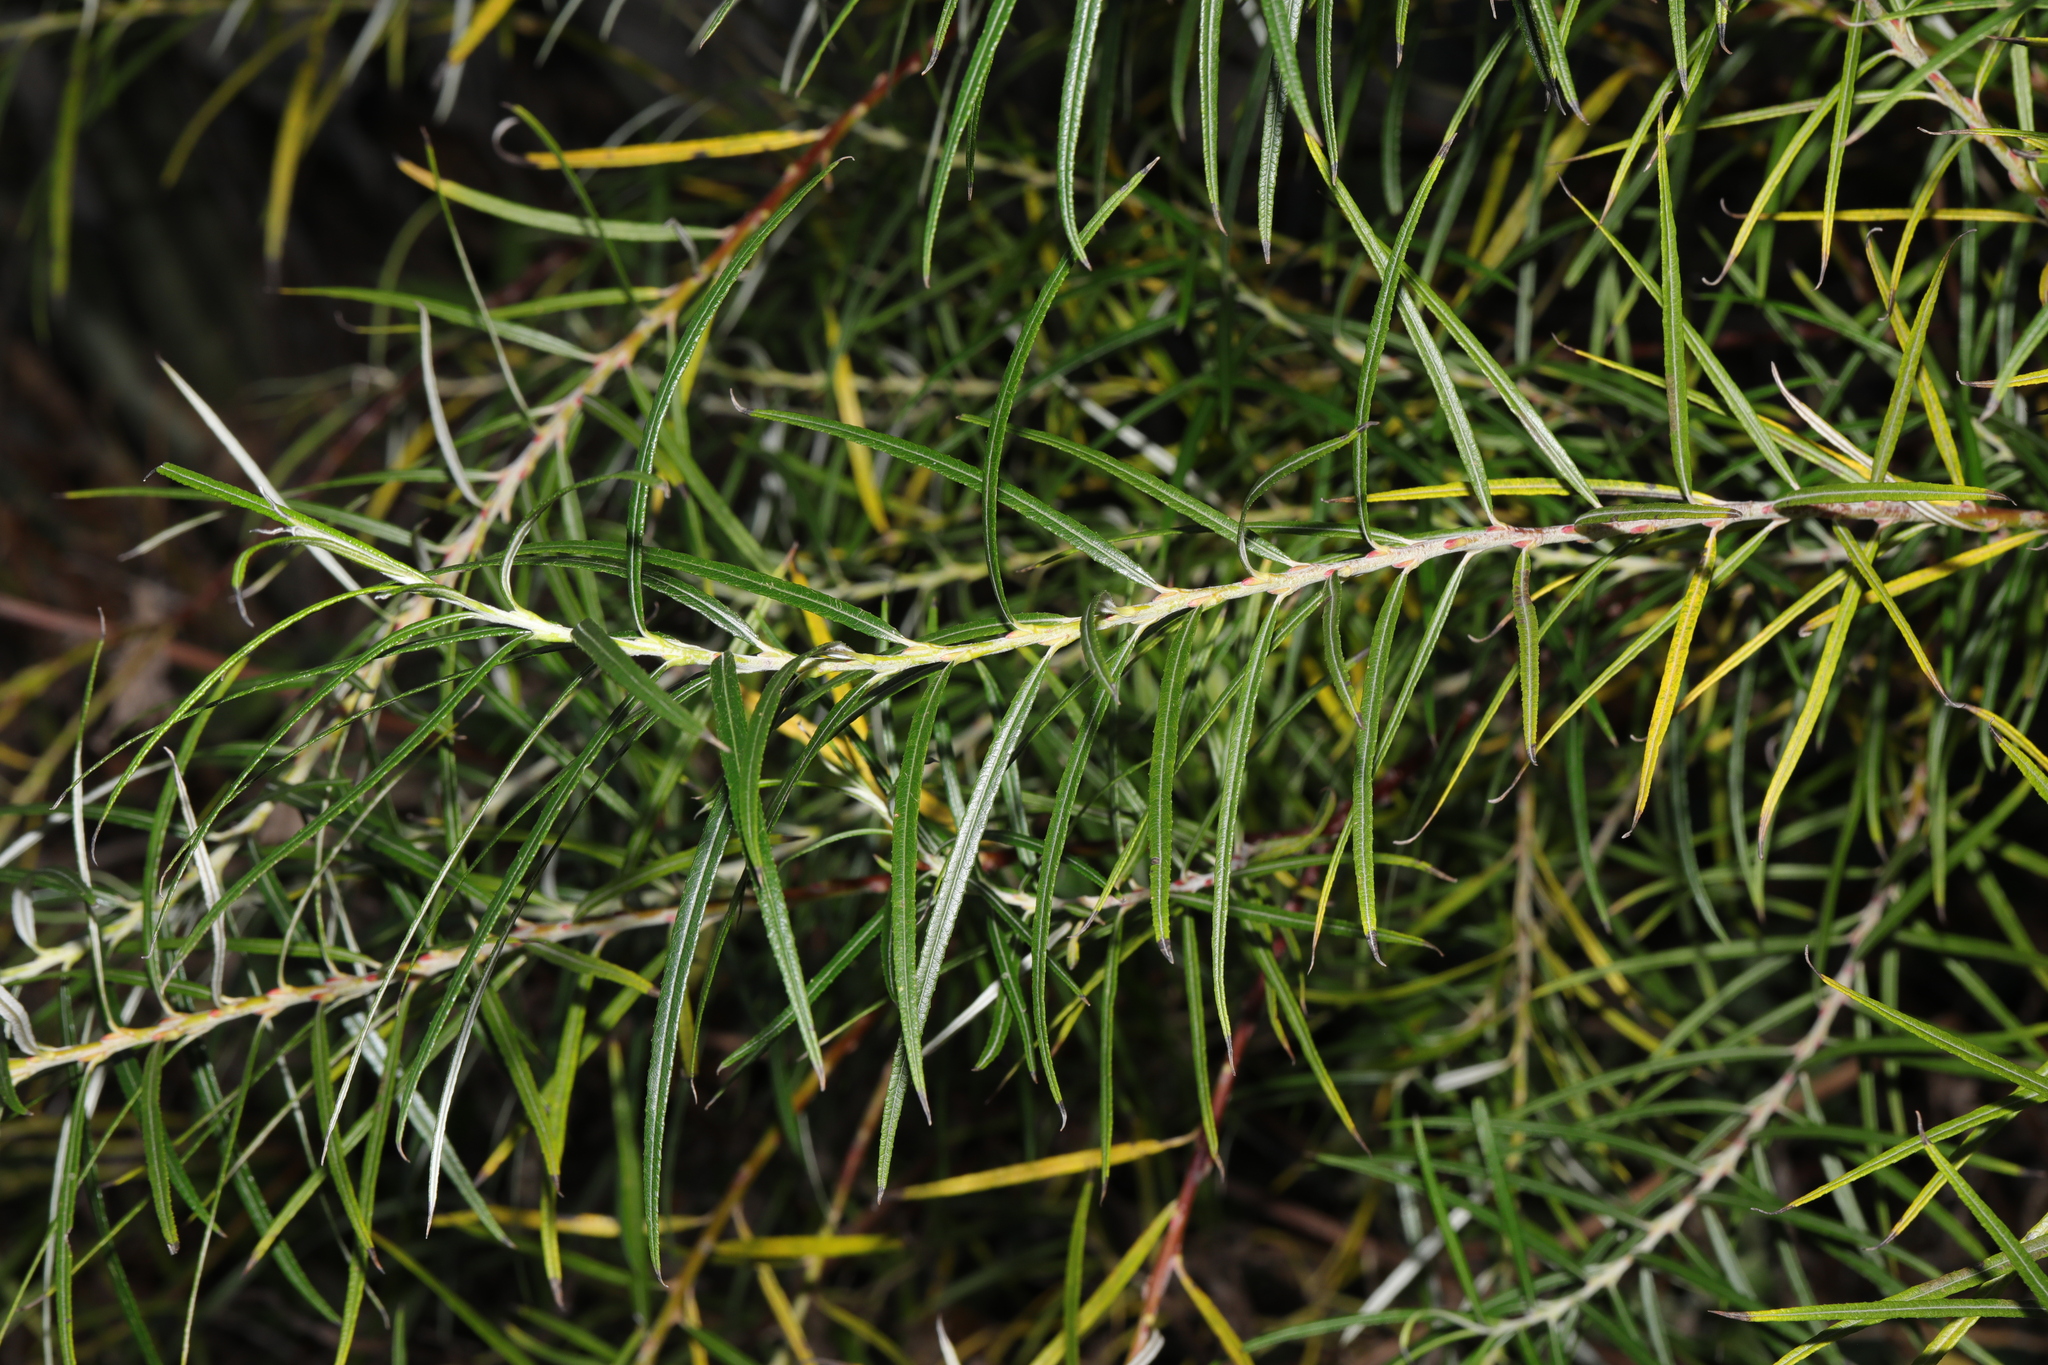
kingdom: Plantae
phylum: Tracheophyta
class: Magnoliopsida
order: Malpighiales
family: Salicaceae
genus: Salix
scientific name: Salix eleagnos
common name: Elaeagnus willow
